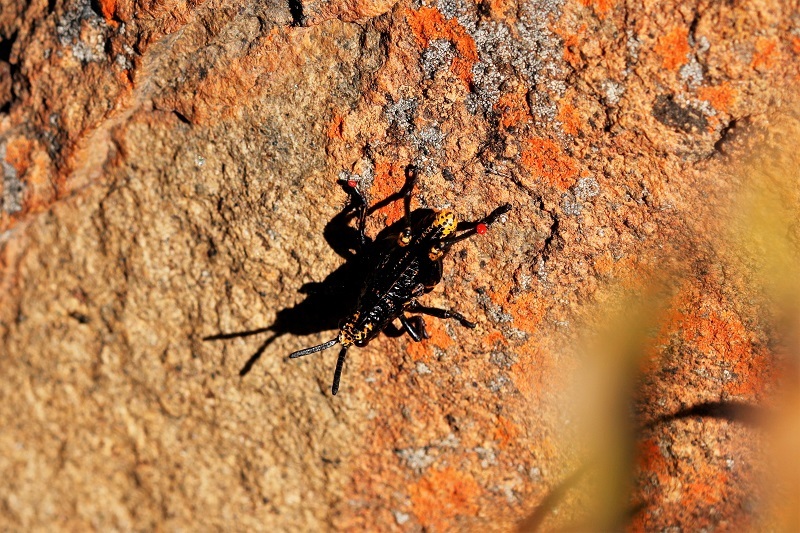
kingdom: Animalia
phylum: Arthropoda
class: Insecta
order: Orthoptera
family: Pyrgomorphidae
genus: Dictyophorus
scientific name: Dictyophorus spumans
